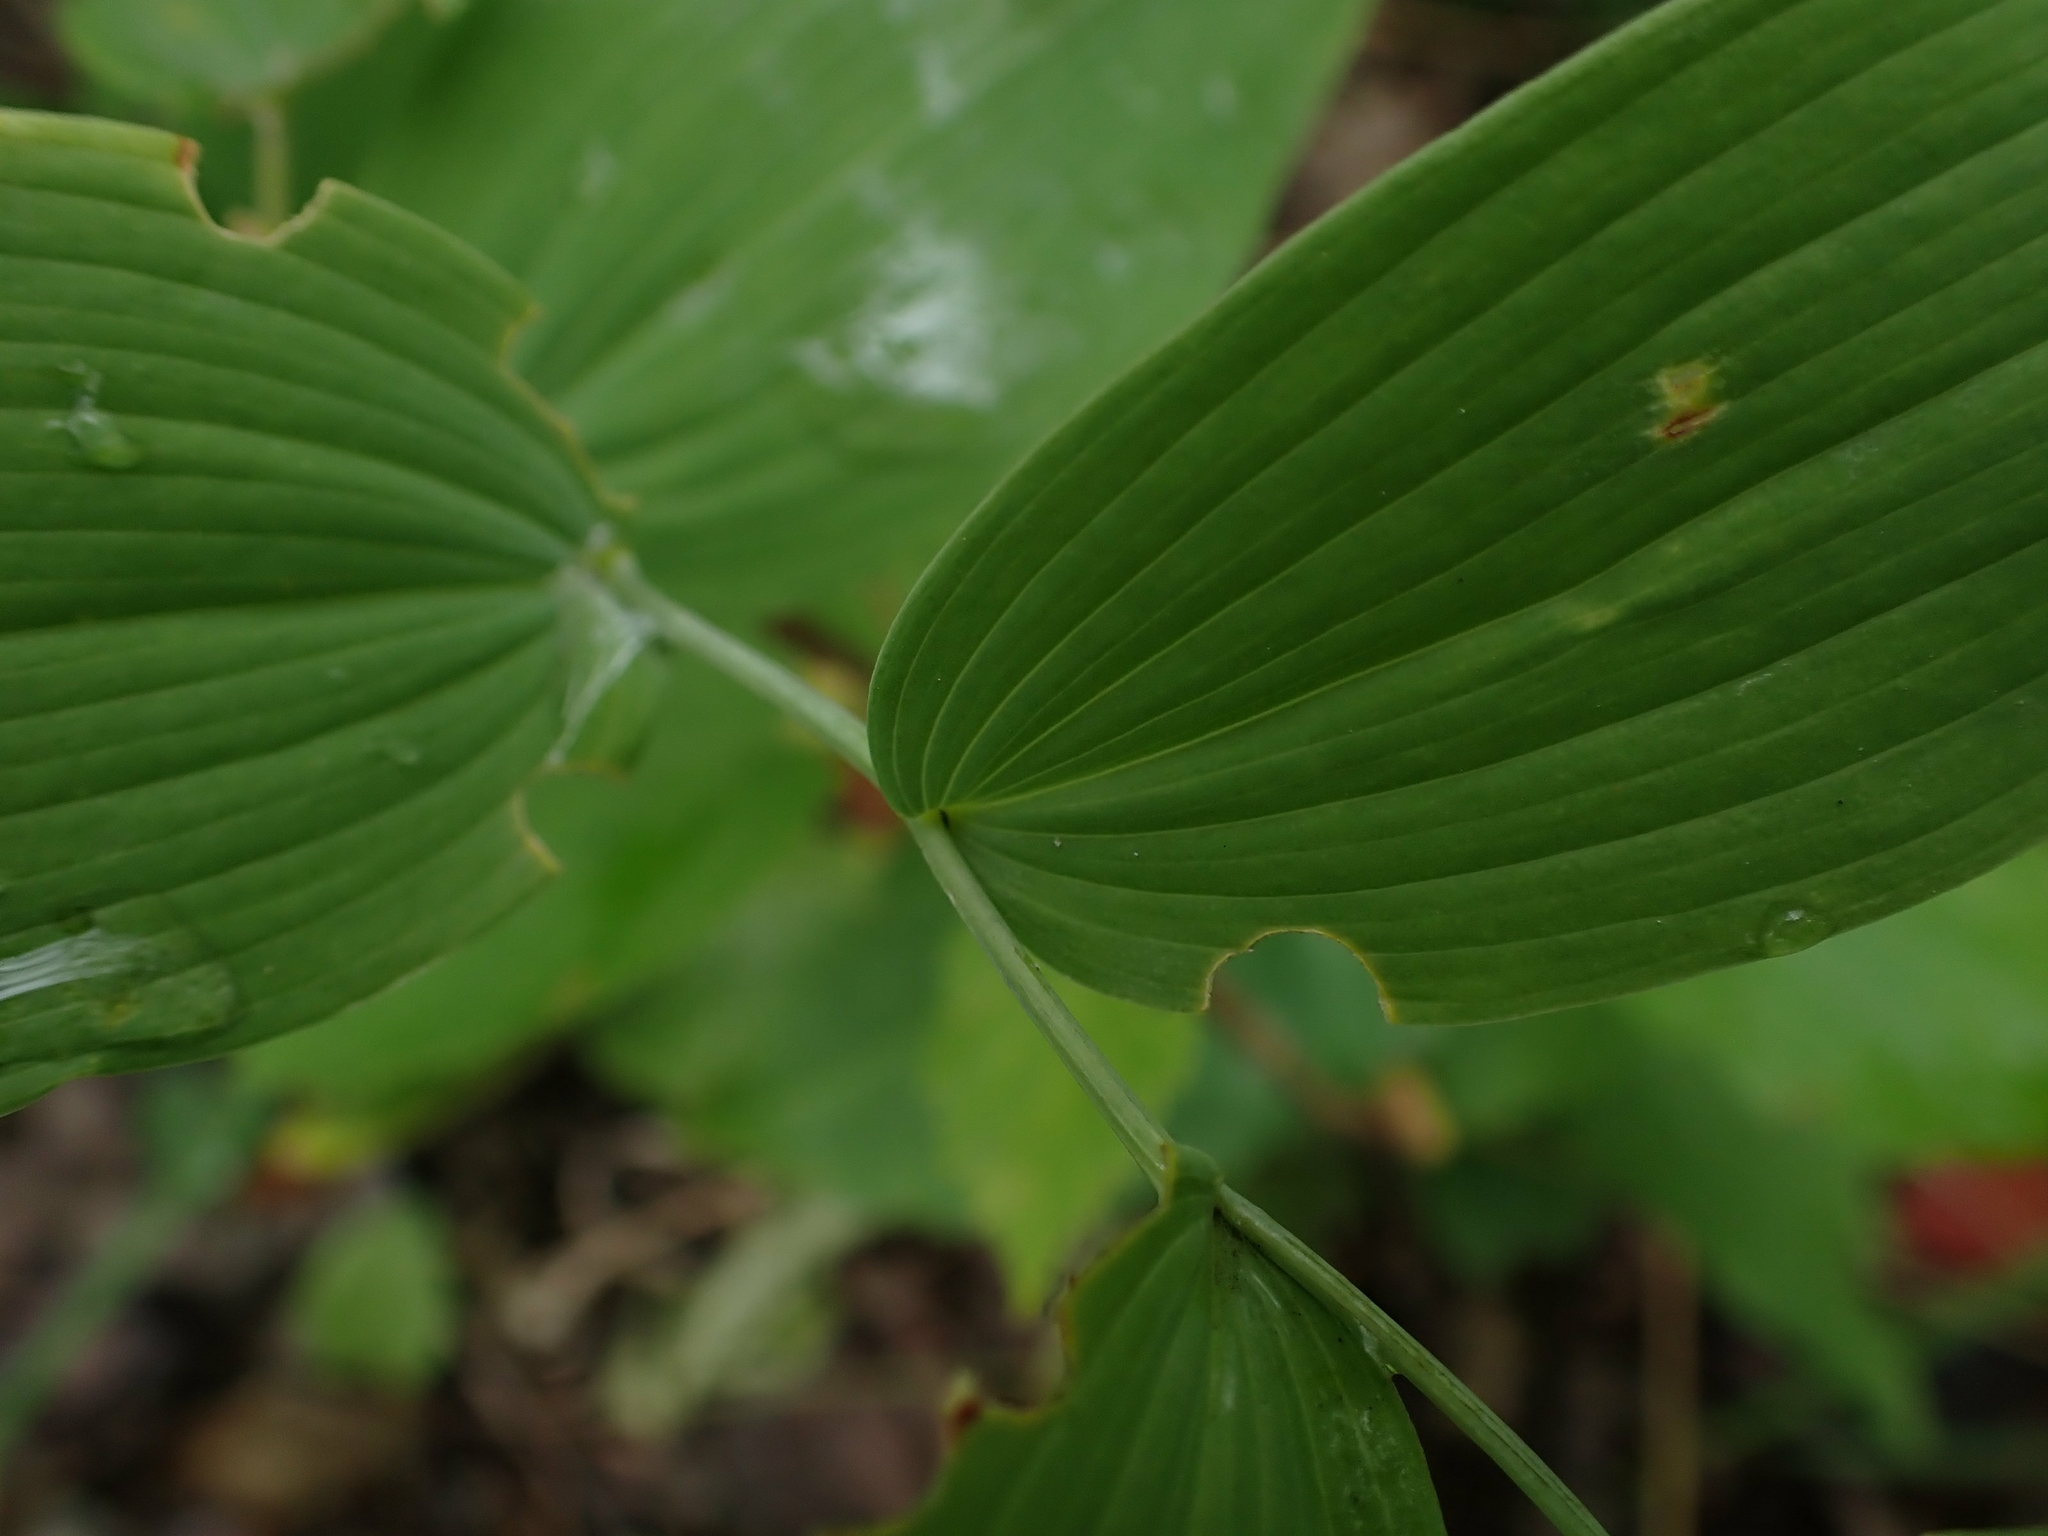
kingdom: Plantae
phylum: Tracheophyta
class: Liliopsida
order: Asparagales
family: Asparagaceae
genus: Polygonatum
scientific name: Polygonatum biflorum
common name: American solomon's-seal
